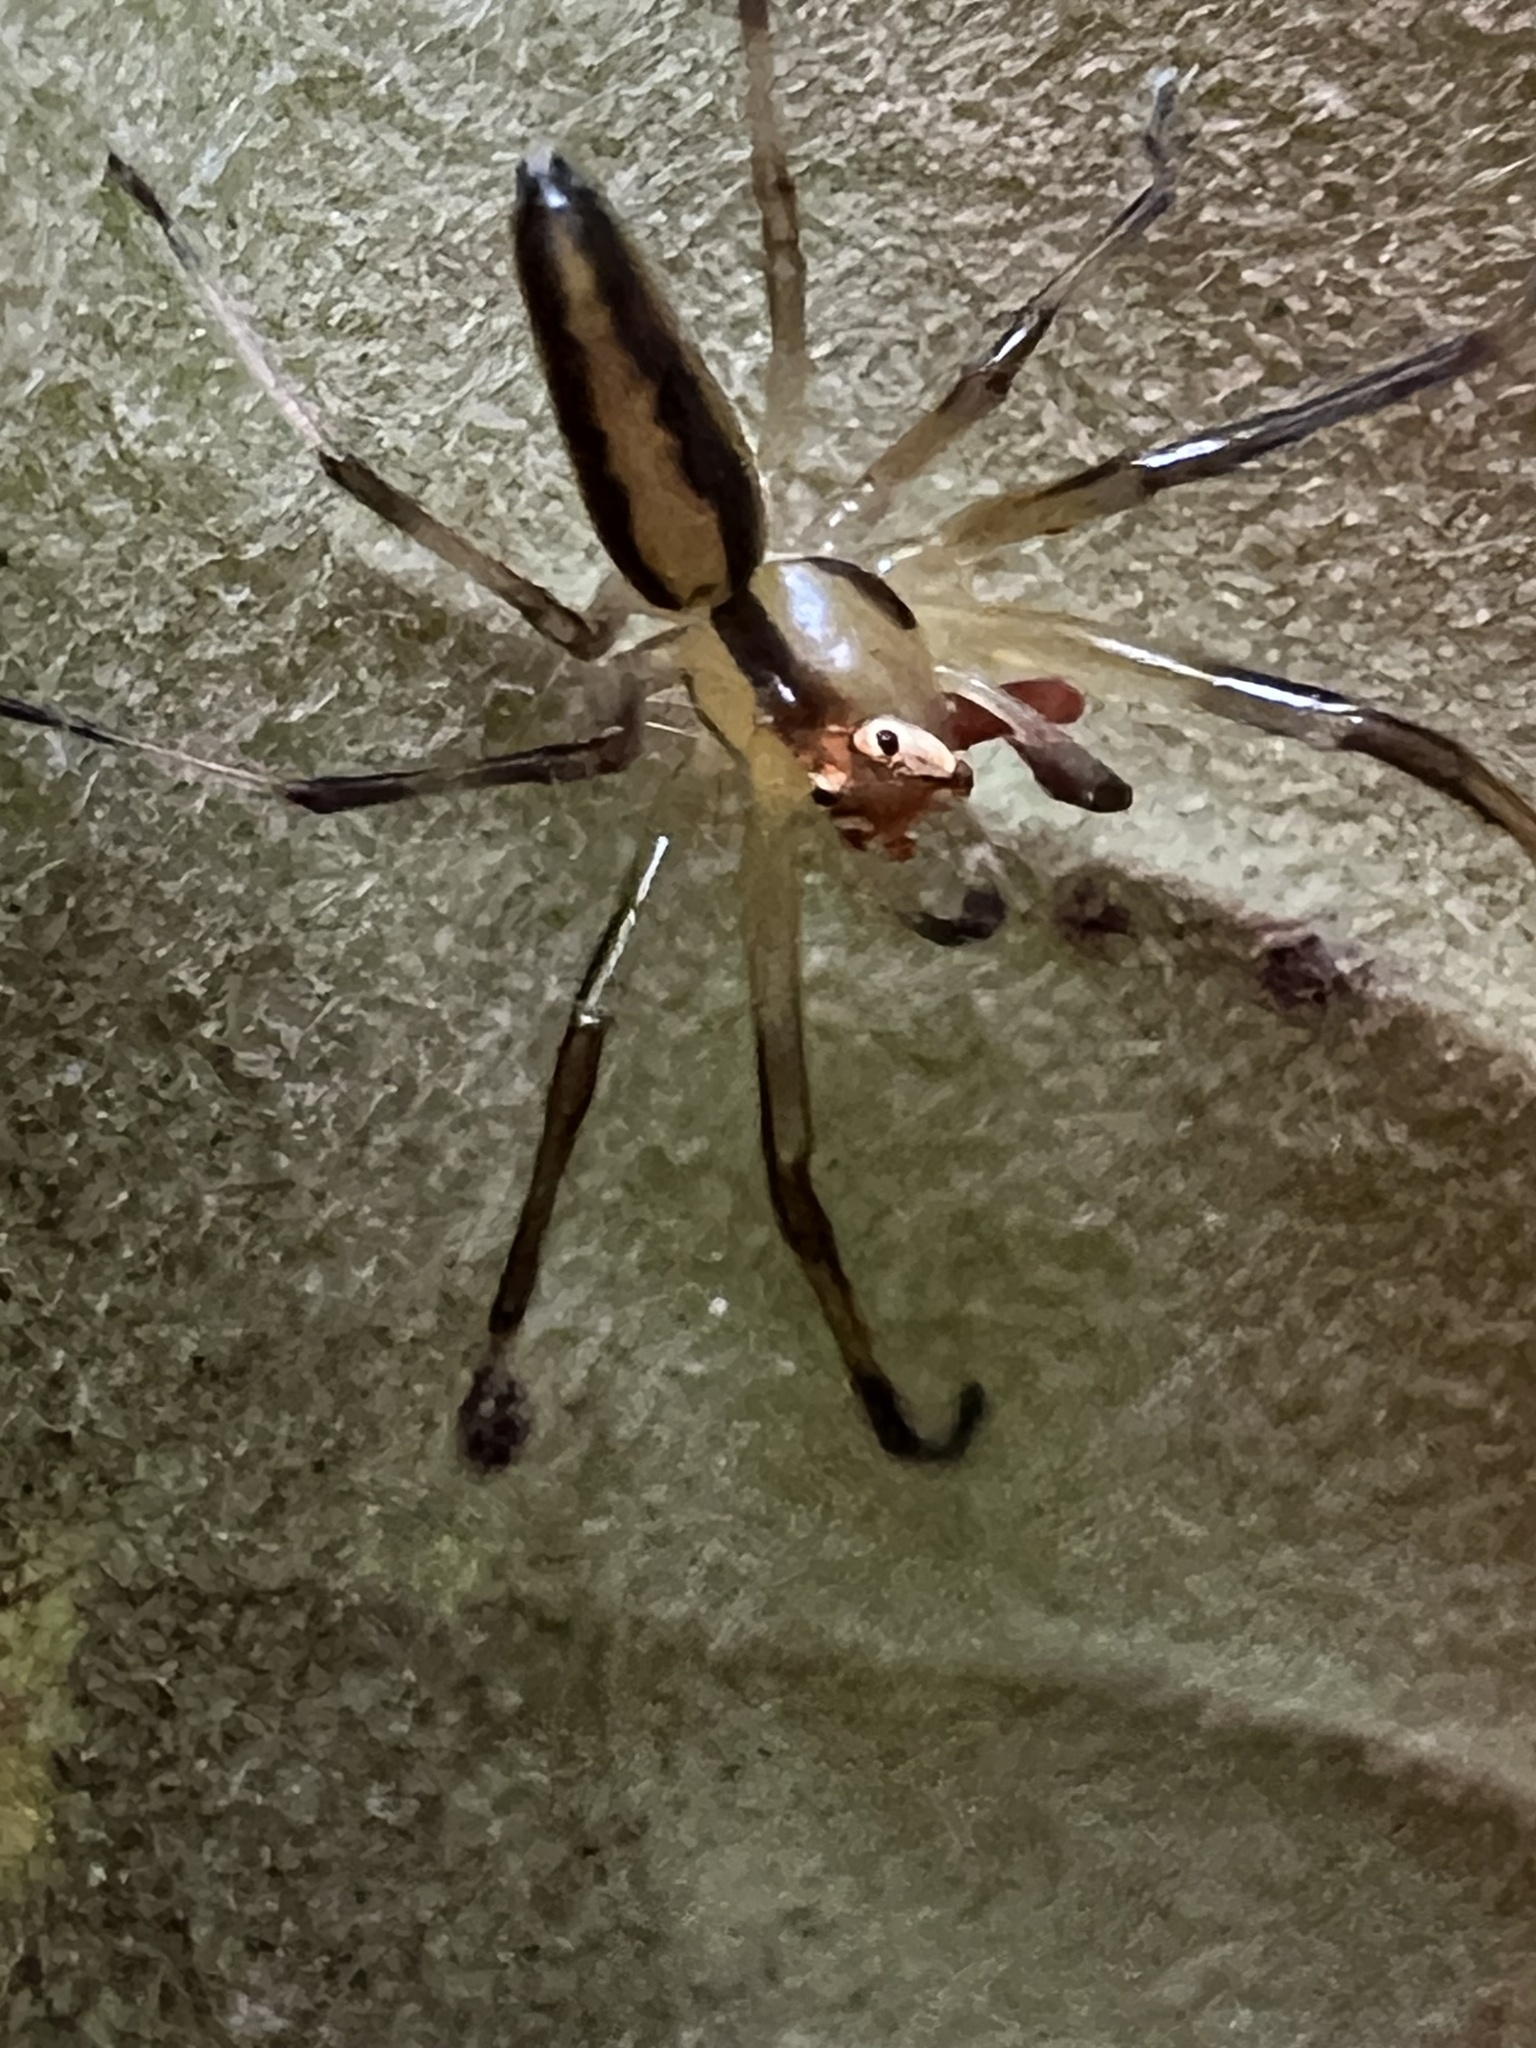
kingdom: Animalia
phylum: Arthropoda
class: Arachnida
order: Araneae
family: Salticidae
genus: Lyssomanes
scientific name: Lyssomanes viridis
